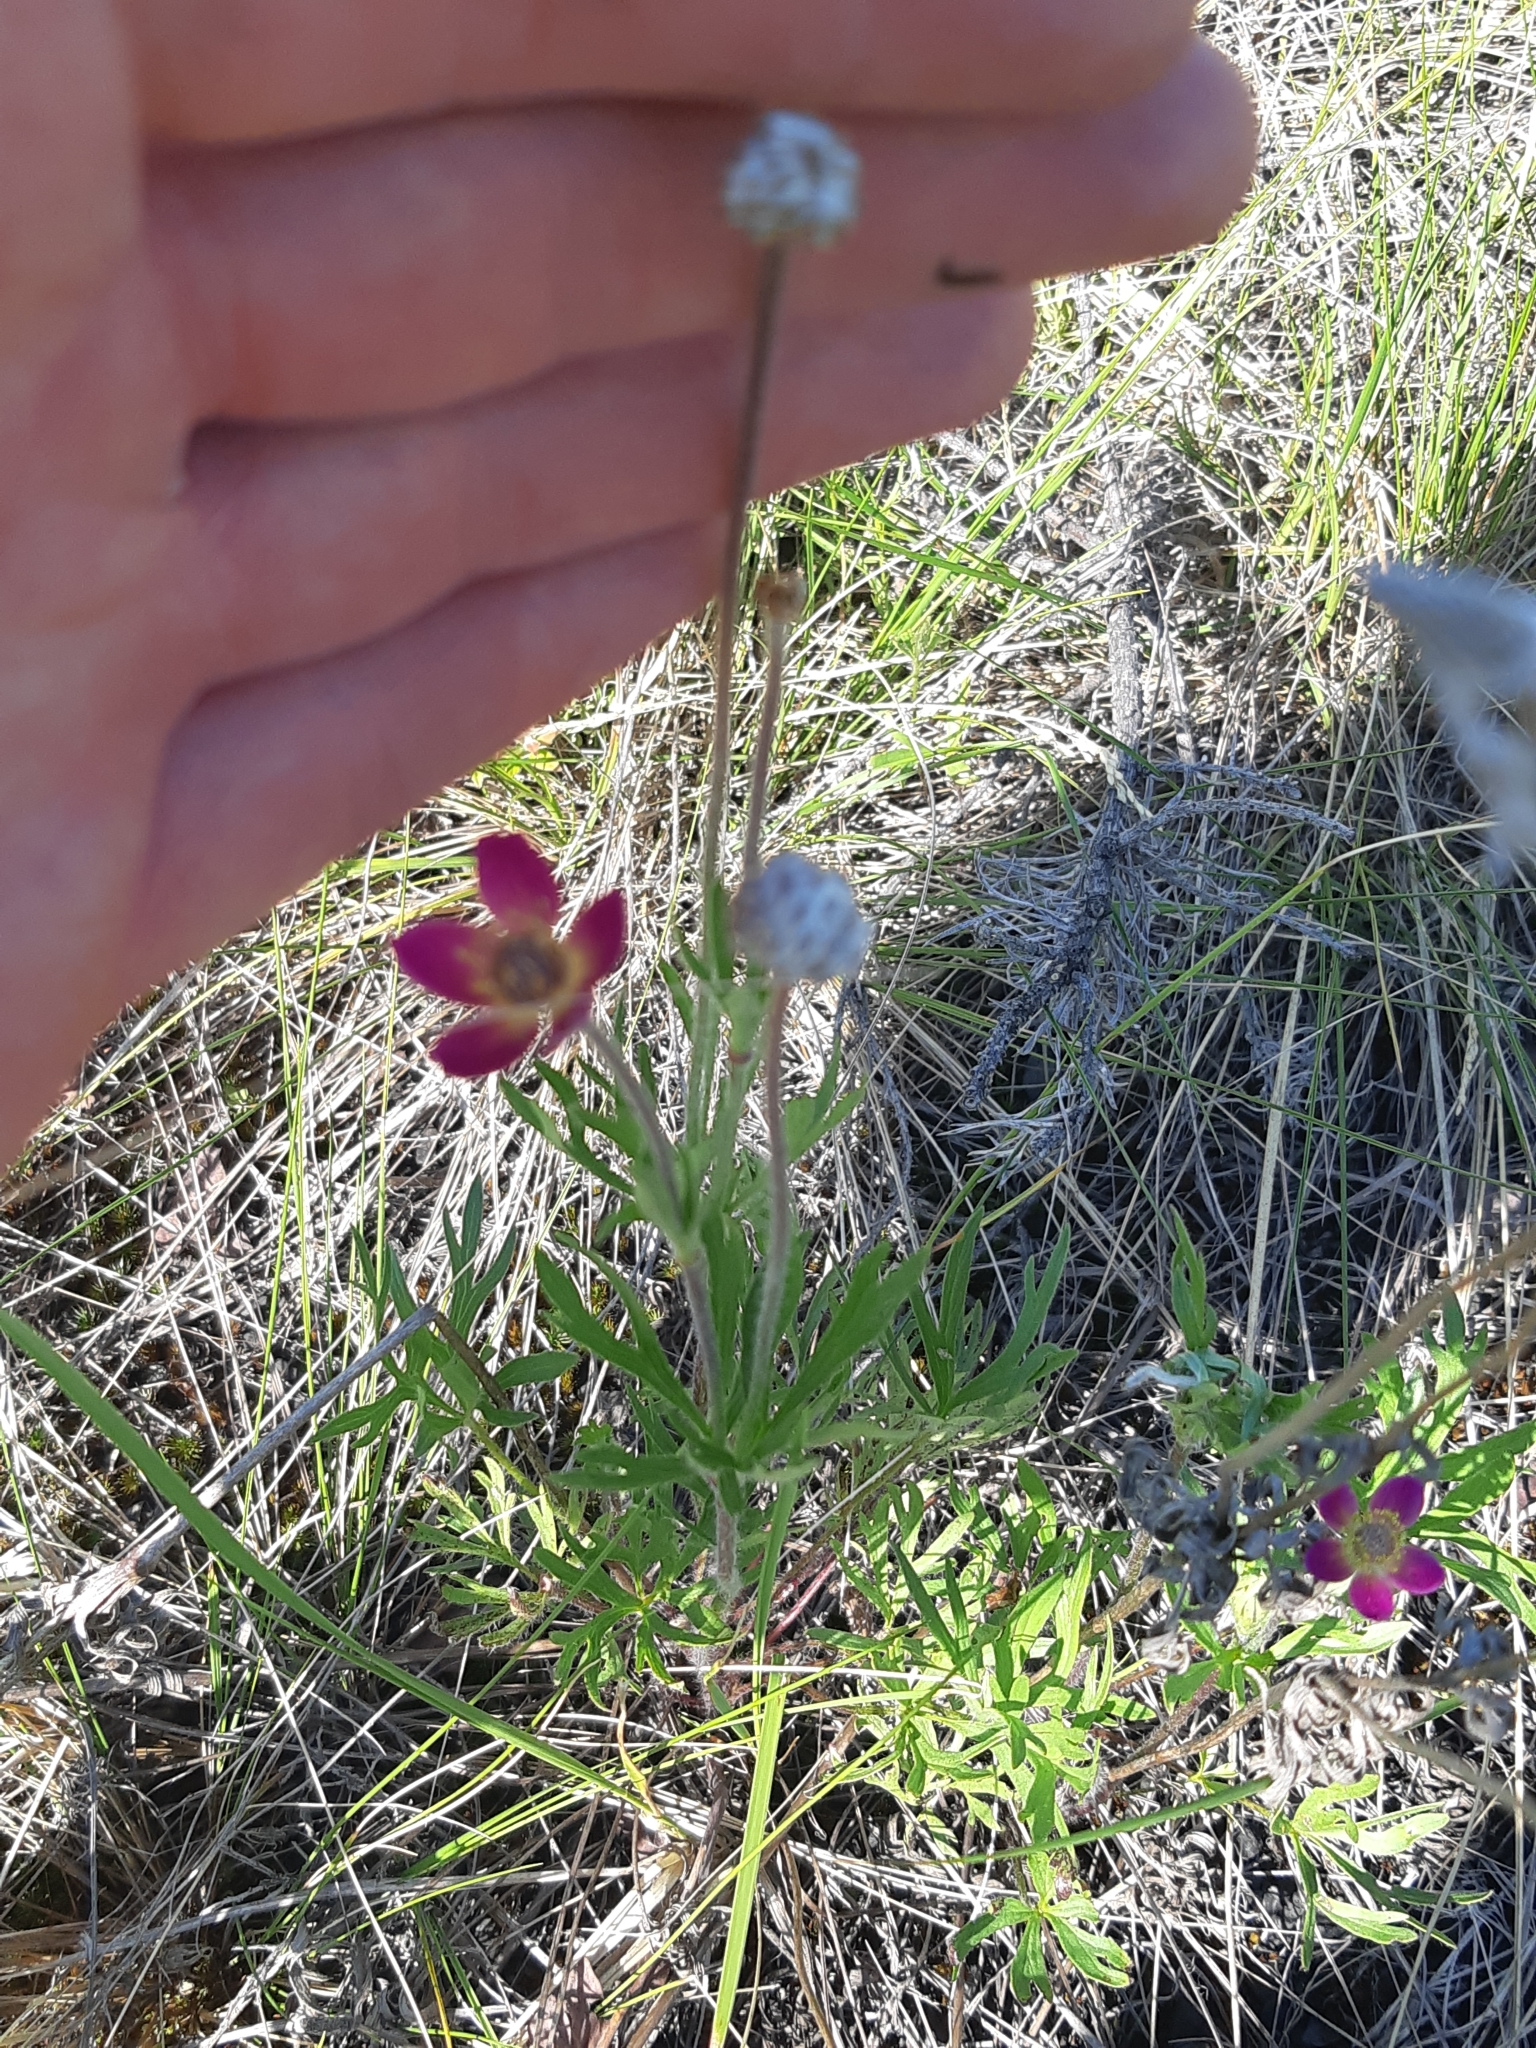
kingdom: Plantae
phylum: Tracheophyta
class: Magnoliopsida
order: Ranunculales
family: Ranunculaceae
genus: Anemone
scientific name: Anemone multifida
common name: Bird's-foot anemone
